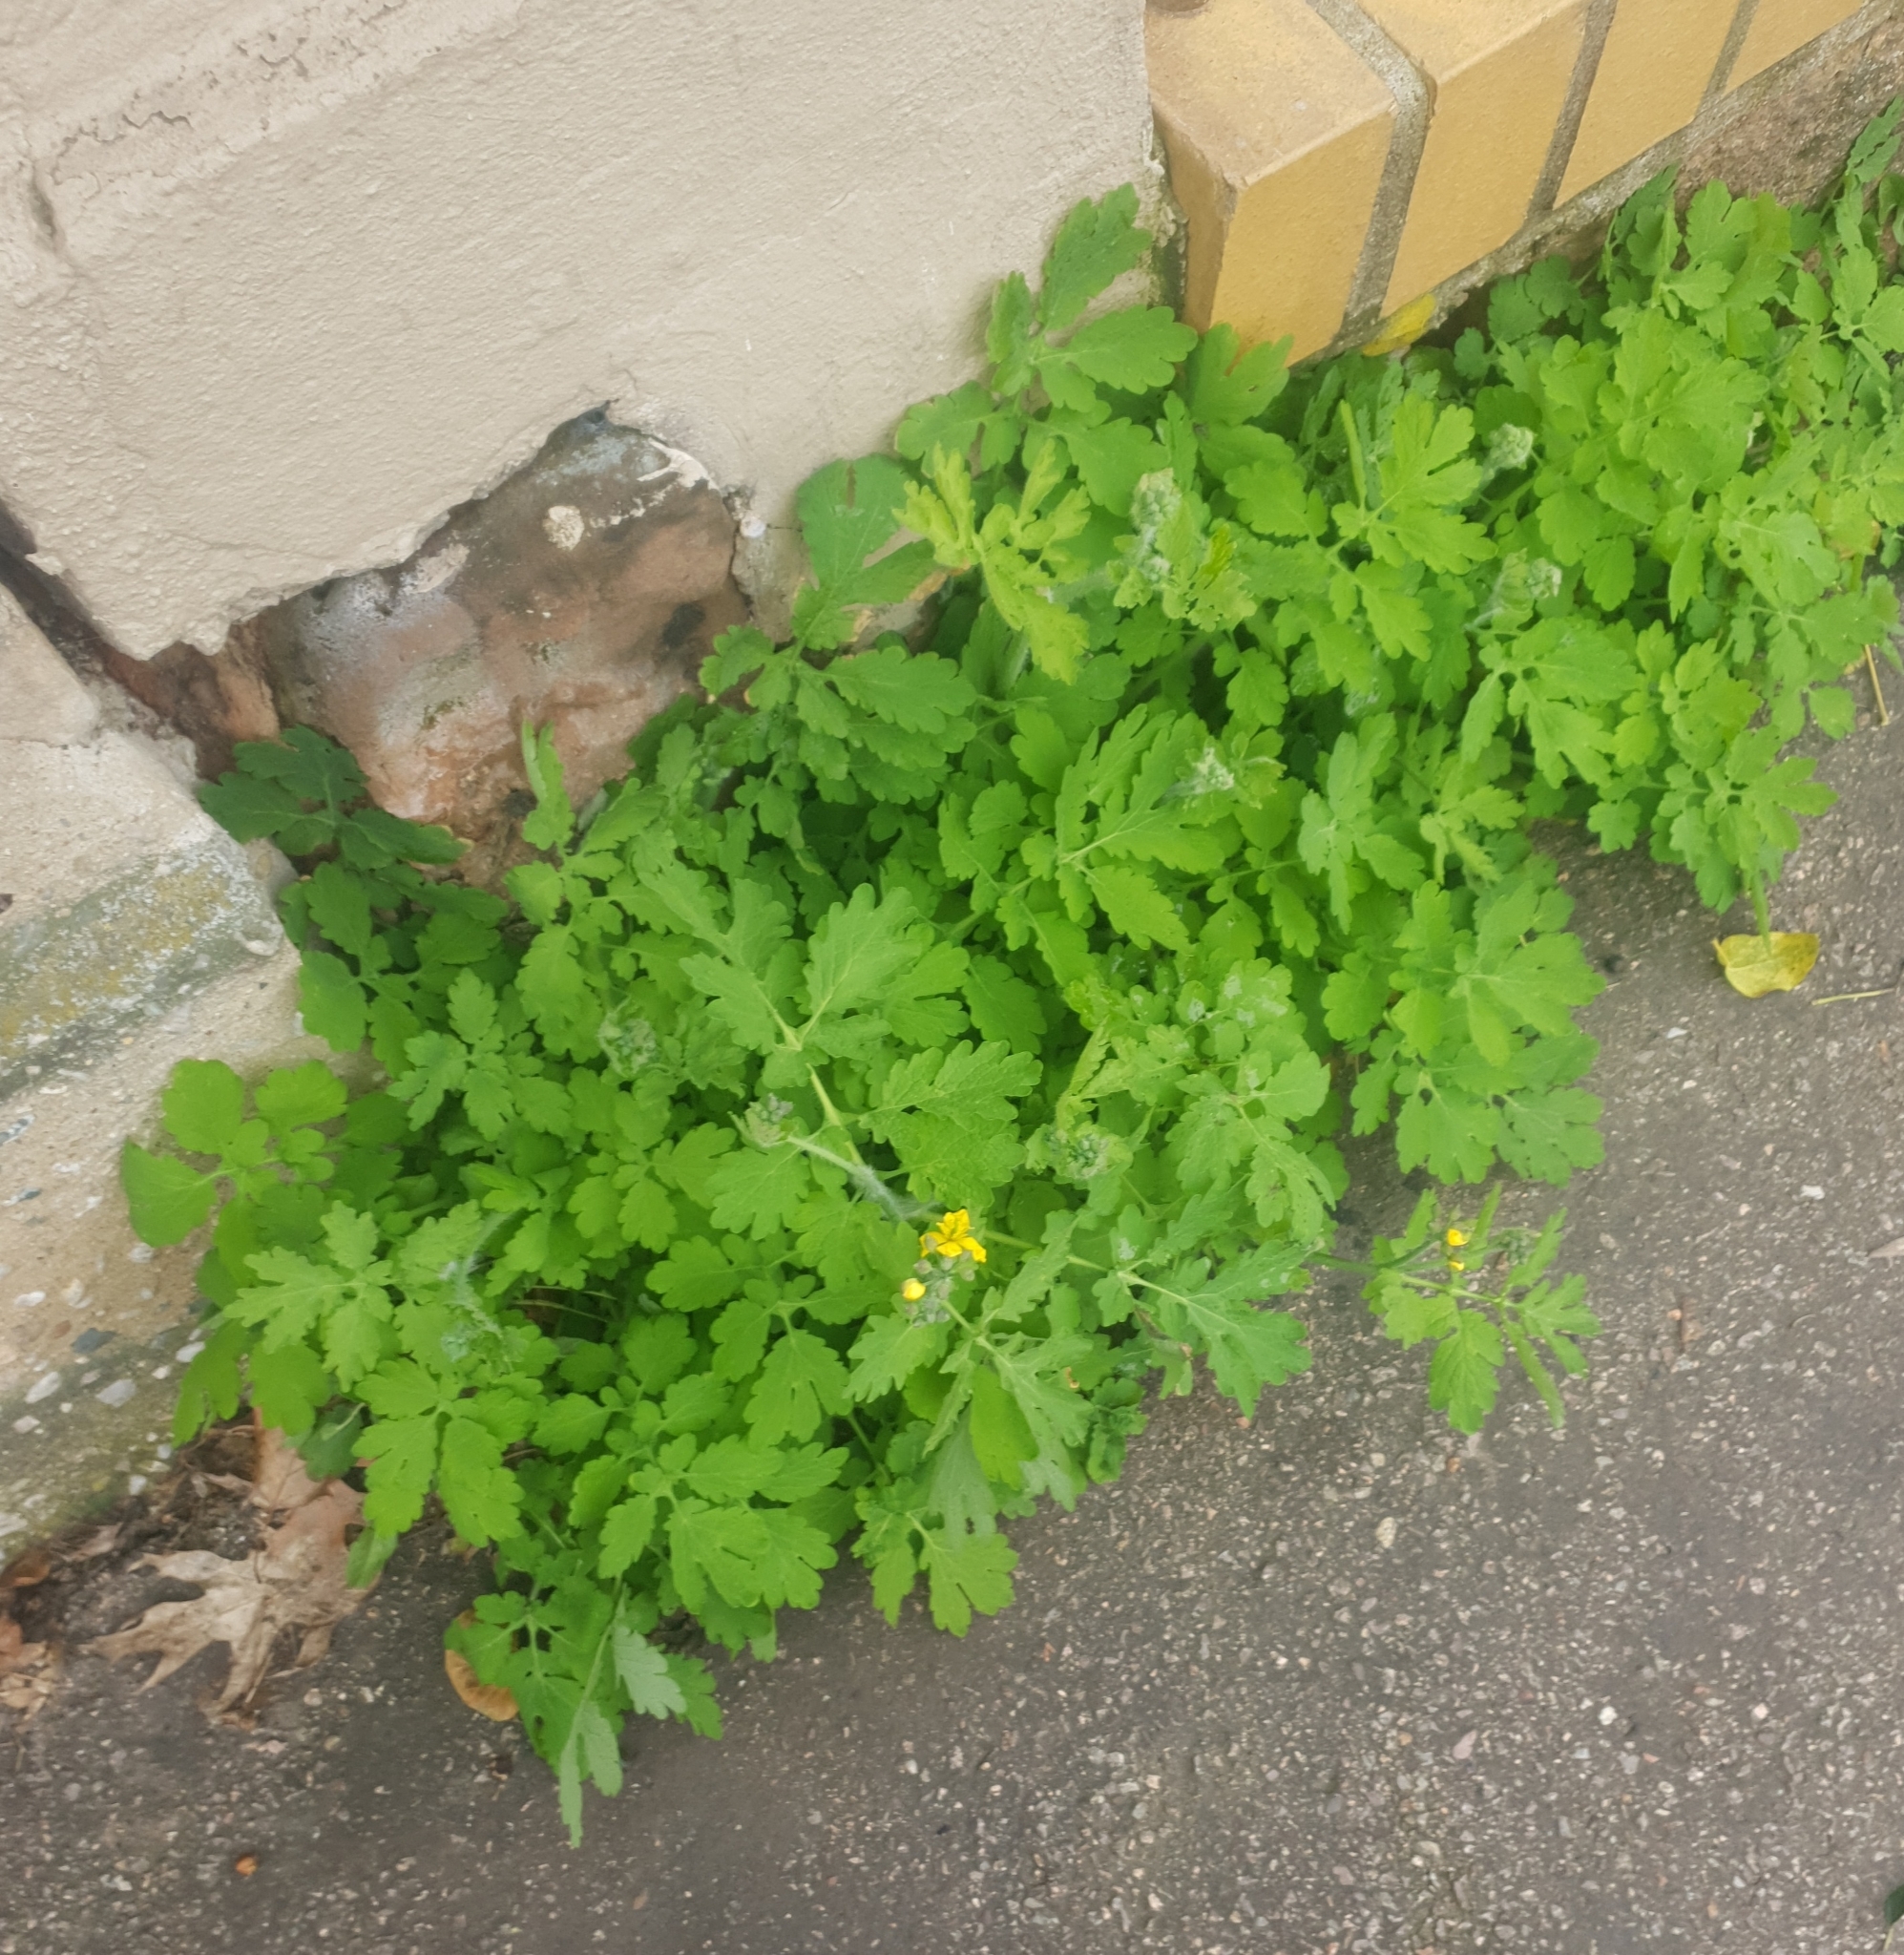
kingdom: Plantae
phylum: Tracheophyta
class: Magnoliopsida
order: Ranunculales
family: Papaveraceae
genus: Chelidonium
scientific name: Chelidonium majus
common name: Greater celandine
